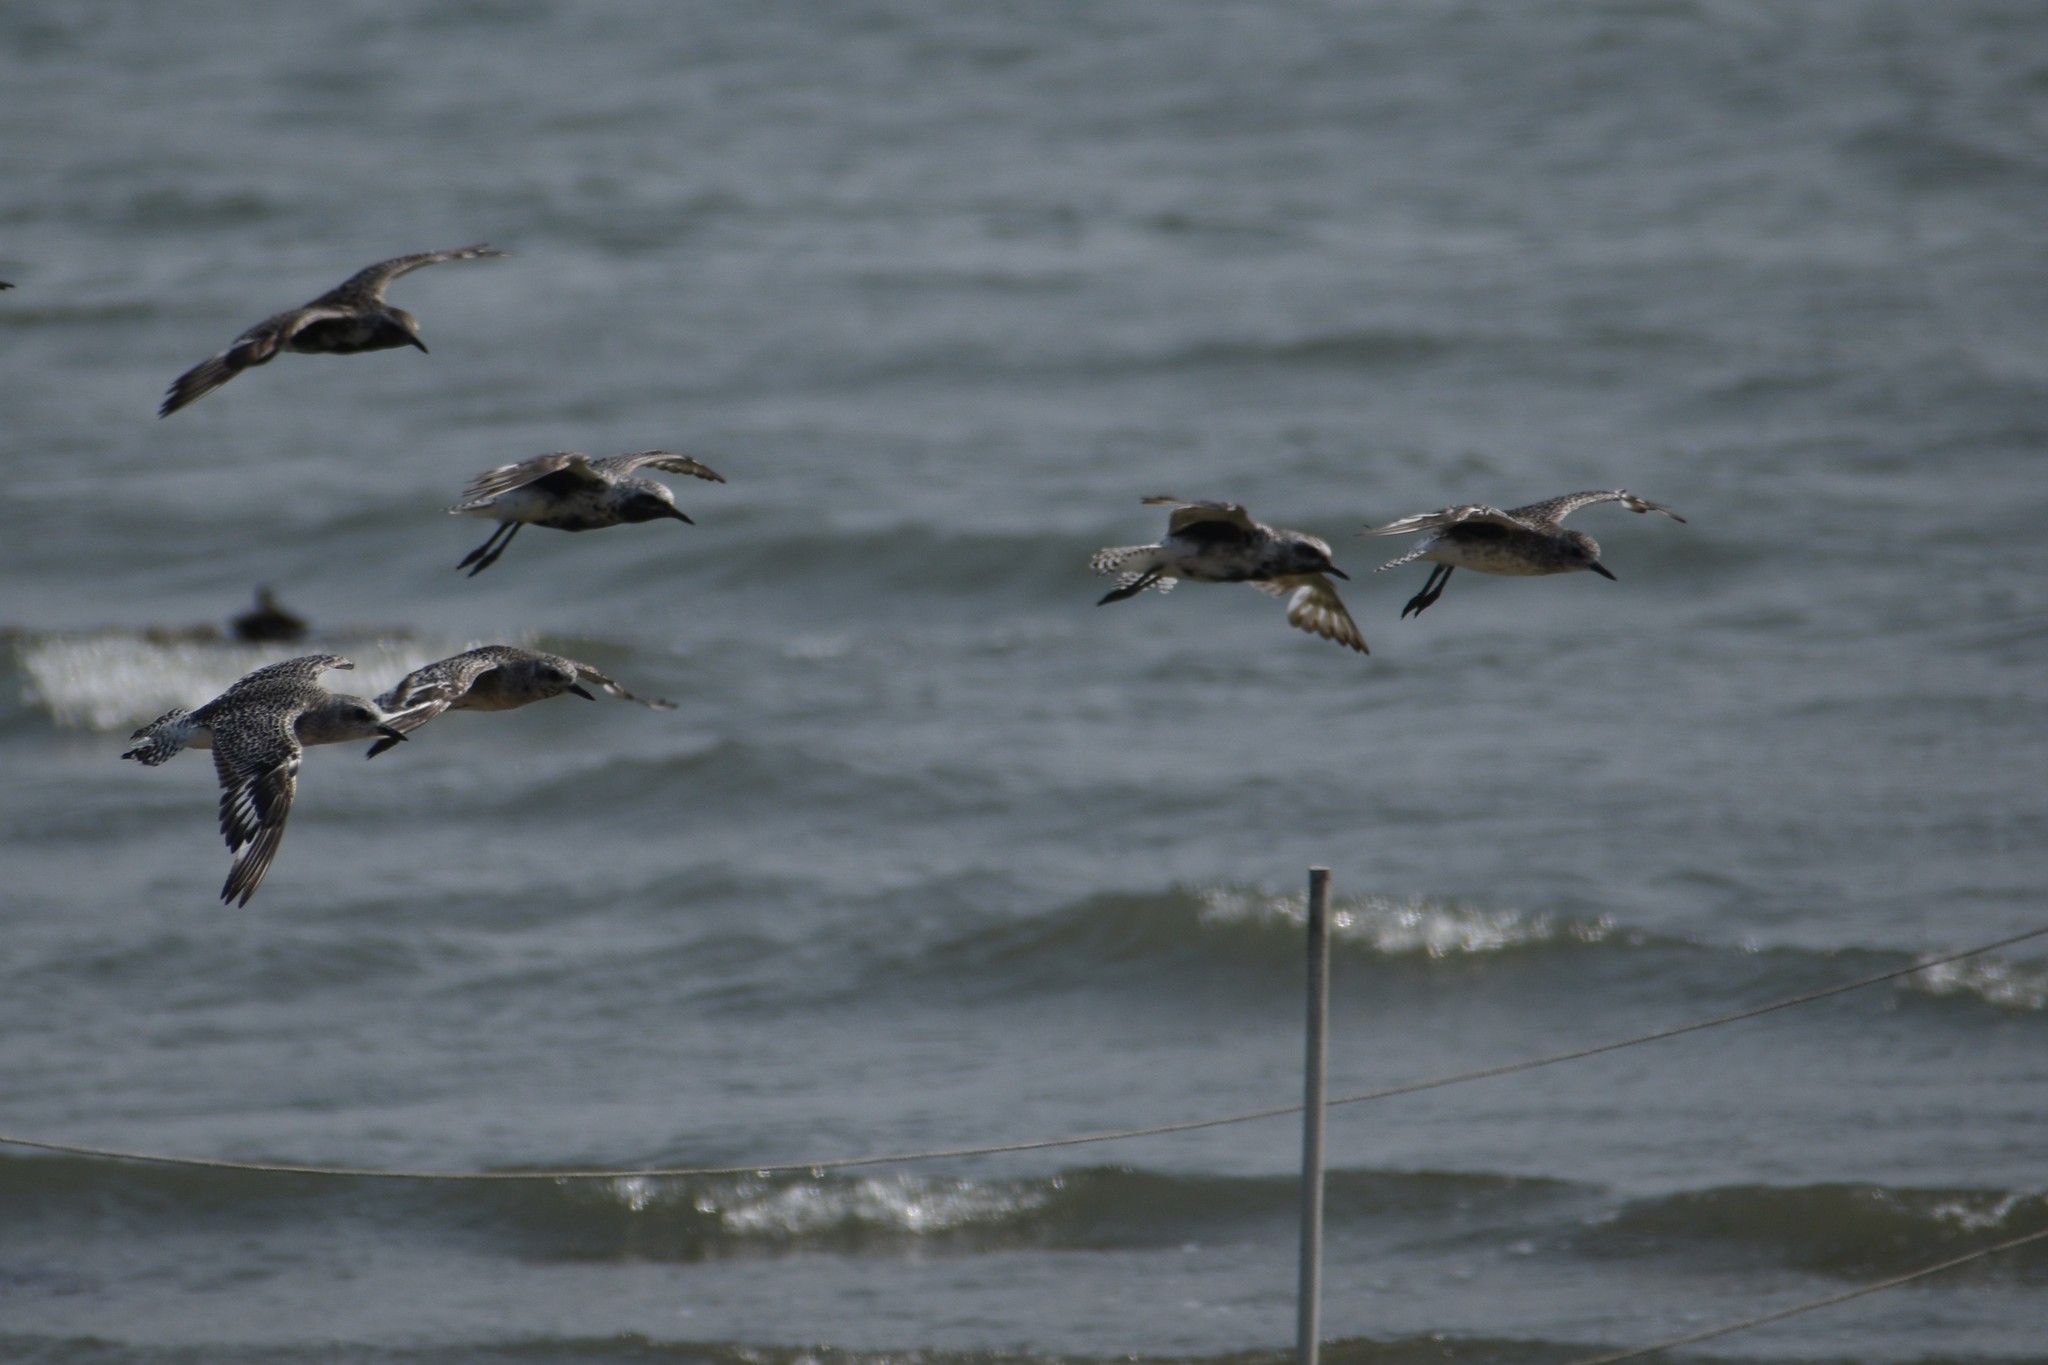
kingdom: Animalia
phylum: Chordata
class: Aves
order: Charadriiformes
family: Charadriidae
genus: Pluvialis
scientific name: Pluvialis squatarola
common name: Grey plover
